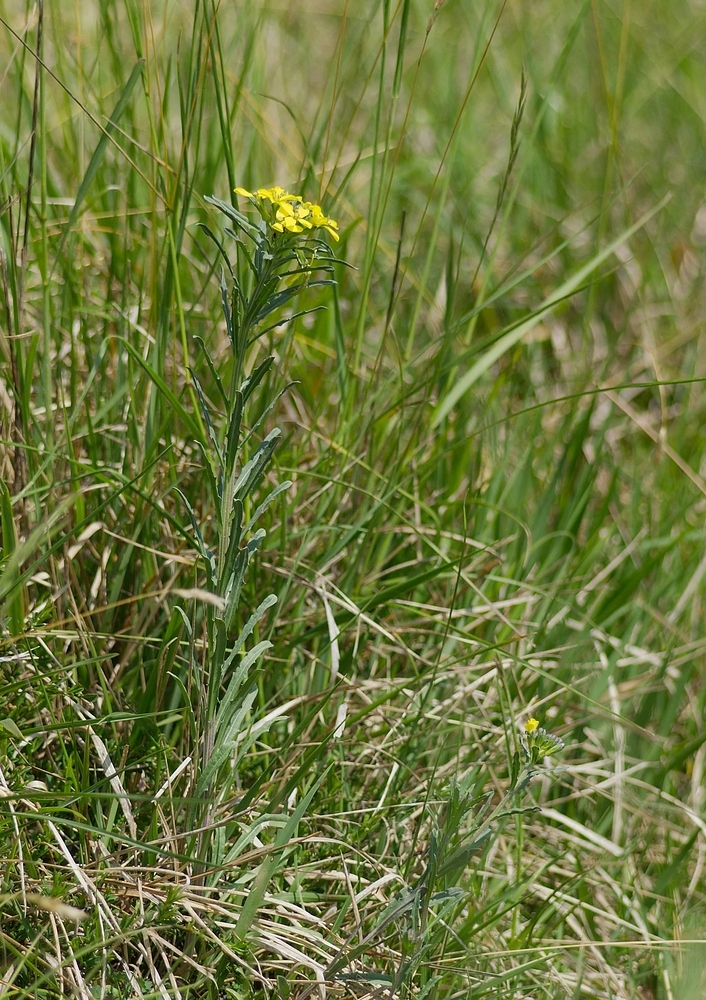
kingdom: Plantae
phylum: Tracheophyta
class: Magnoliopsida
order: Brassicales
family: Brassicaceae
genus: Erysimum
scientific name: Erysimum odoratum
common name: Smelly wallflower
